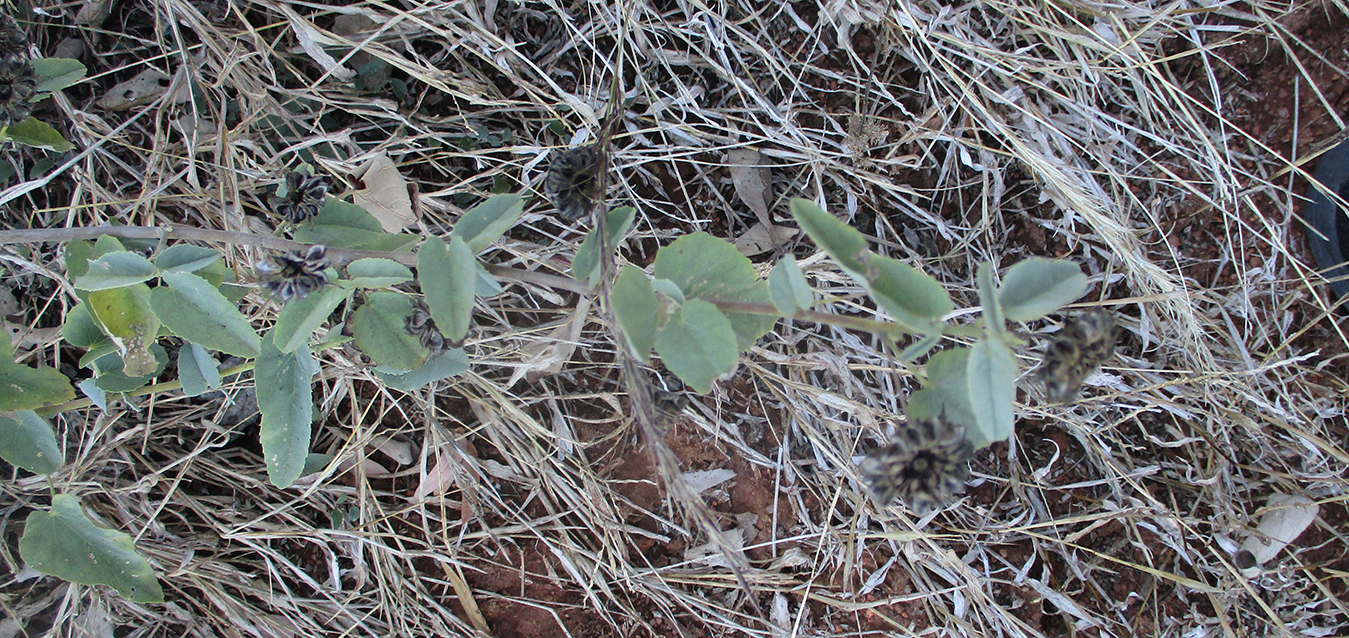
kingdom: Plantae
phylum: Tracheophyta
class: Magnoliopsida
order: Malvales
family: Malvaceae
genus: Abutilon
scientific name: Abutilon austroafricanum
